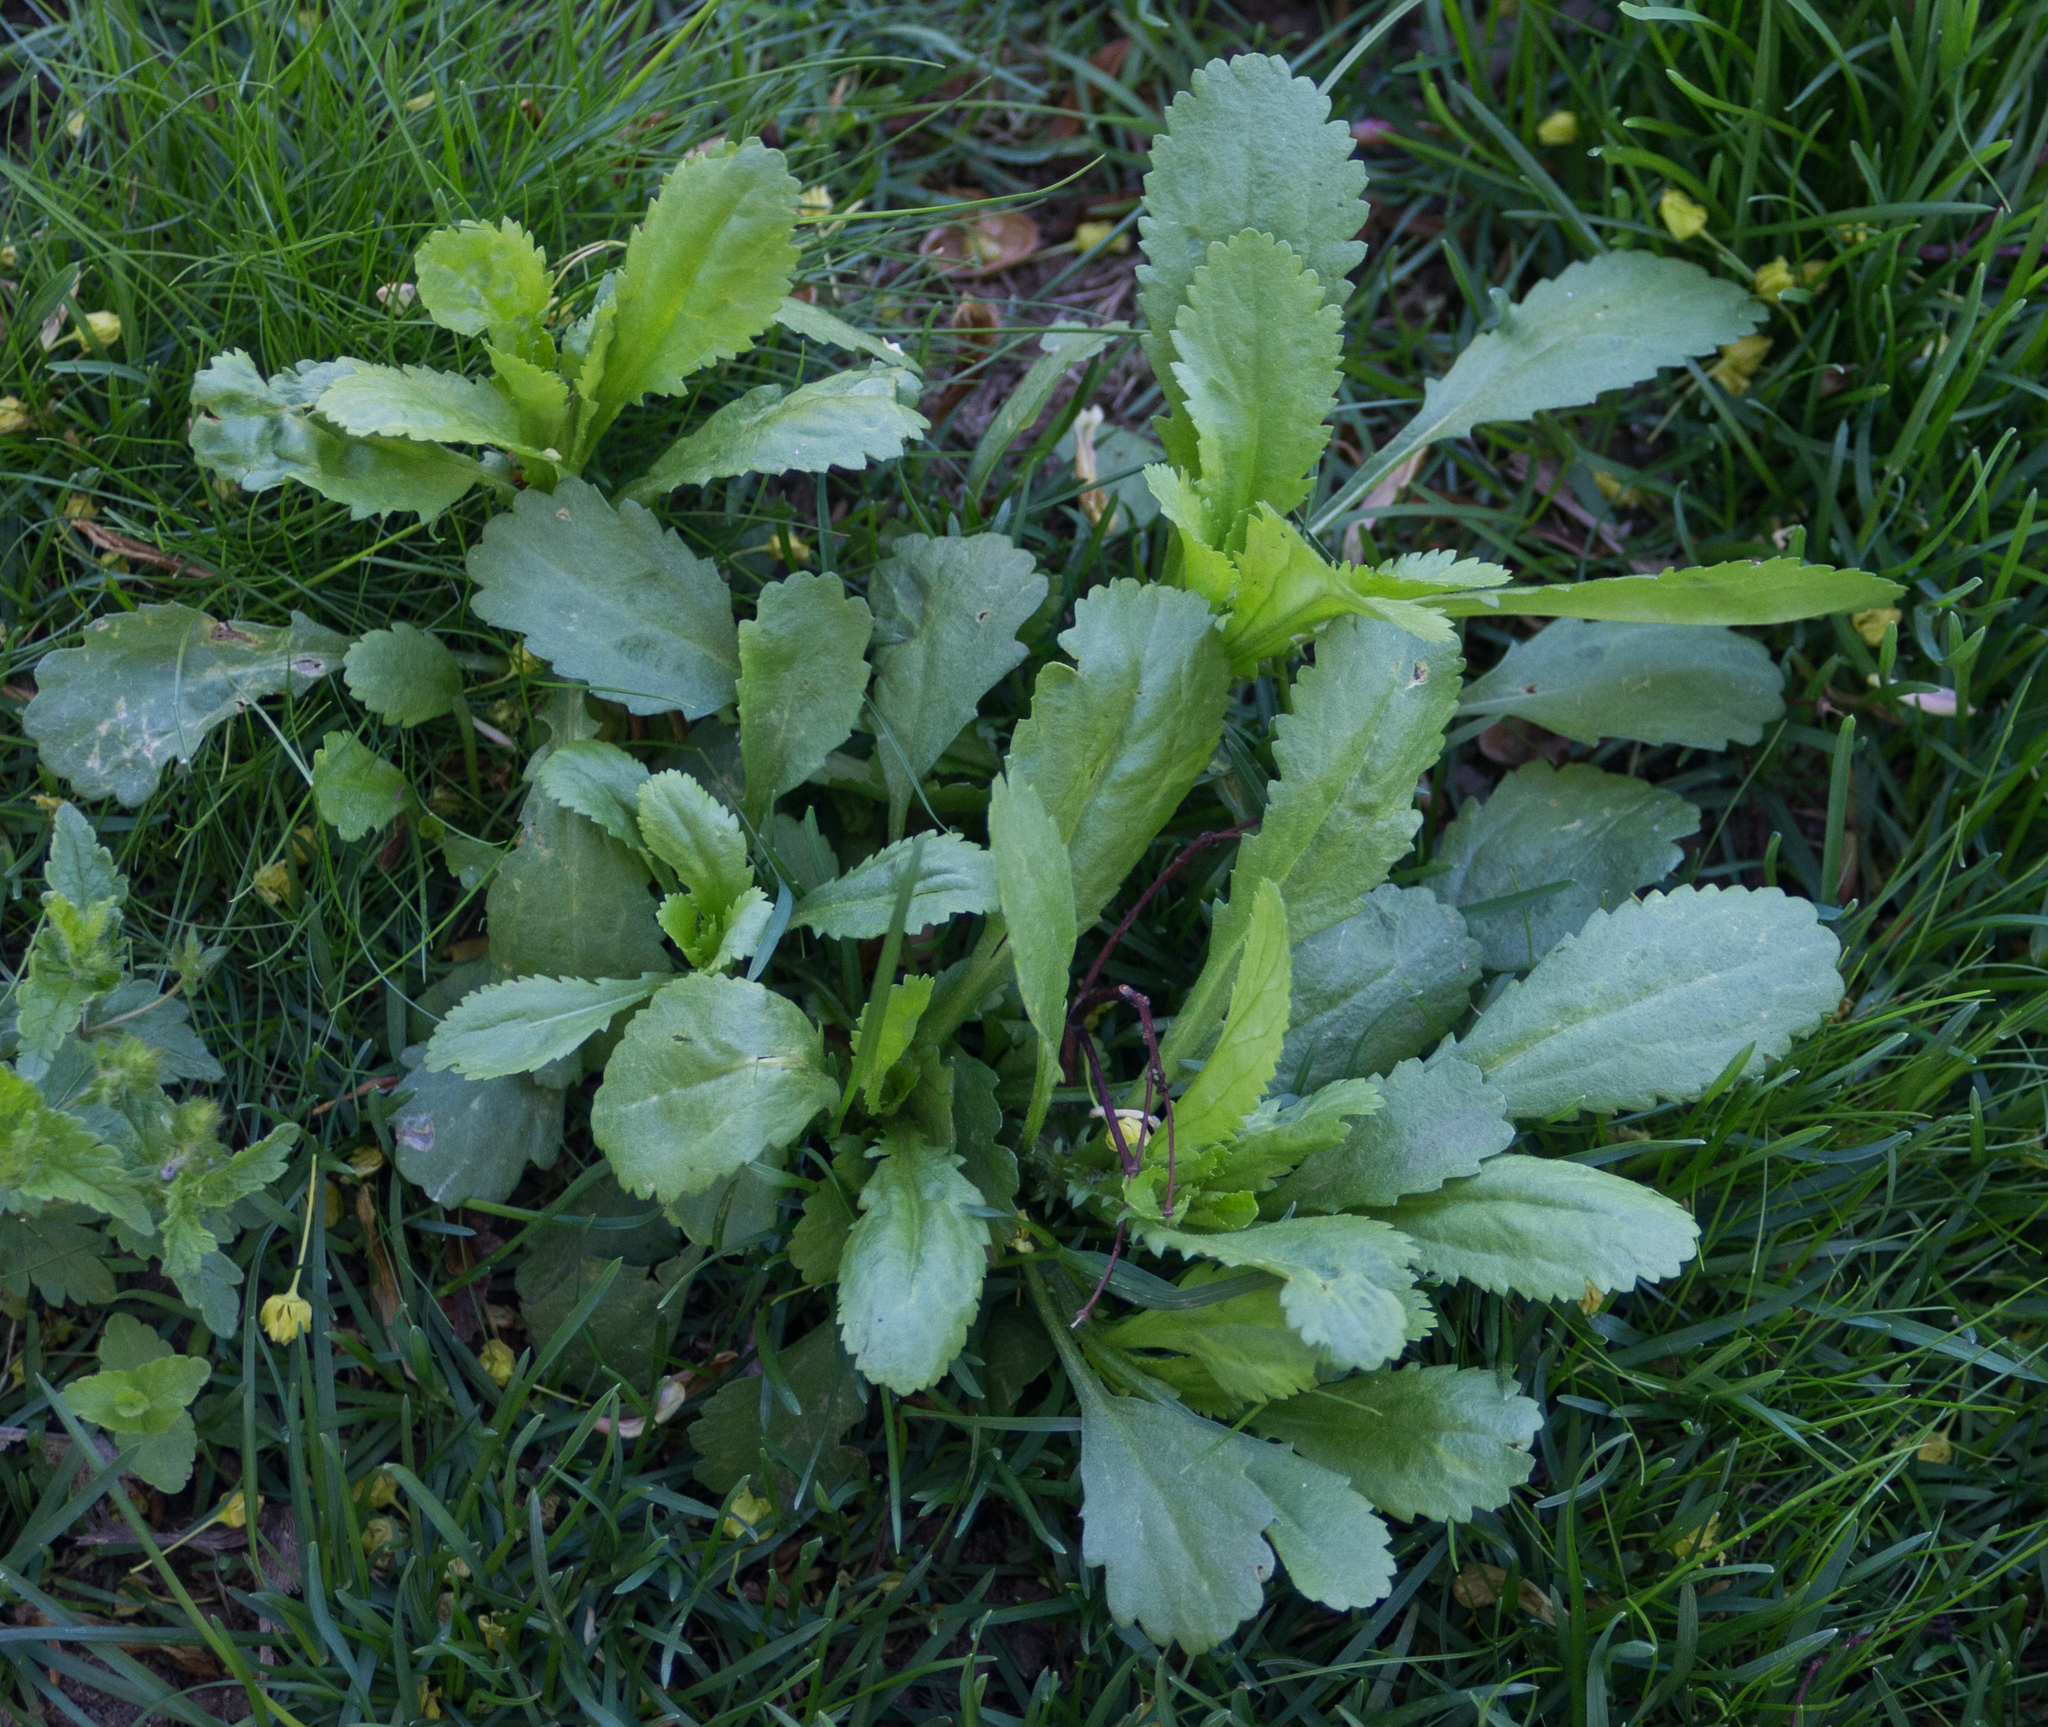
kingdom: Plantae
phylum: Tracheophyta
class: Magnoliopsida
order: Asterales
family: Asteraceae
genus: Leucanthemum
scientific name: Leucanthemum vulgare
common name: Oxeye daisy
